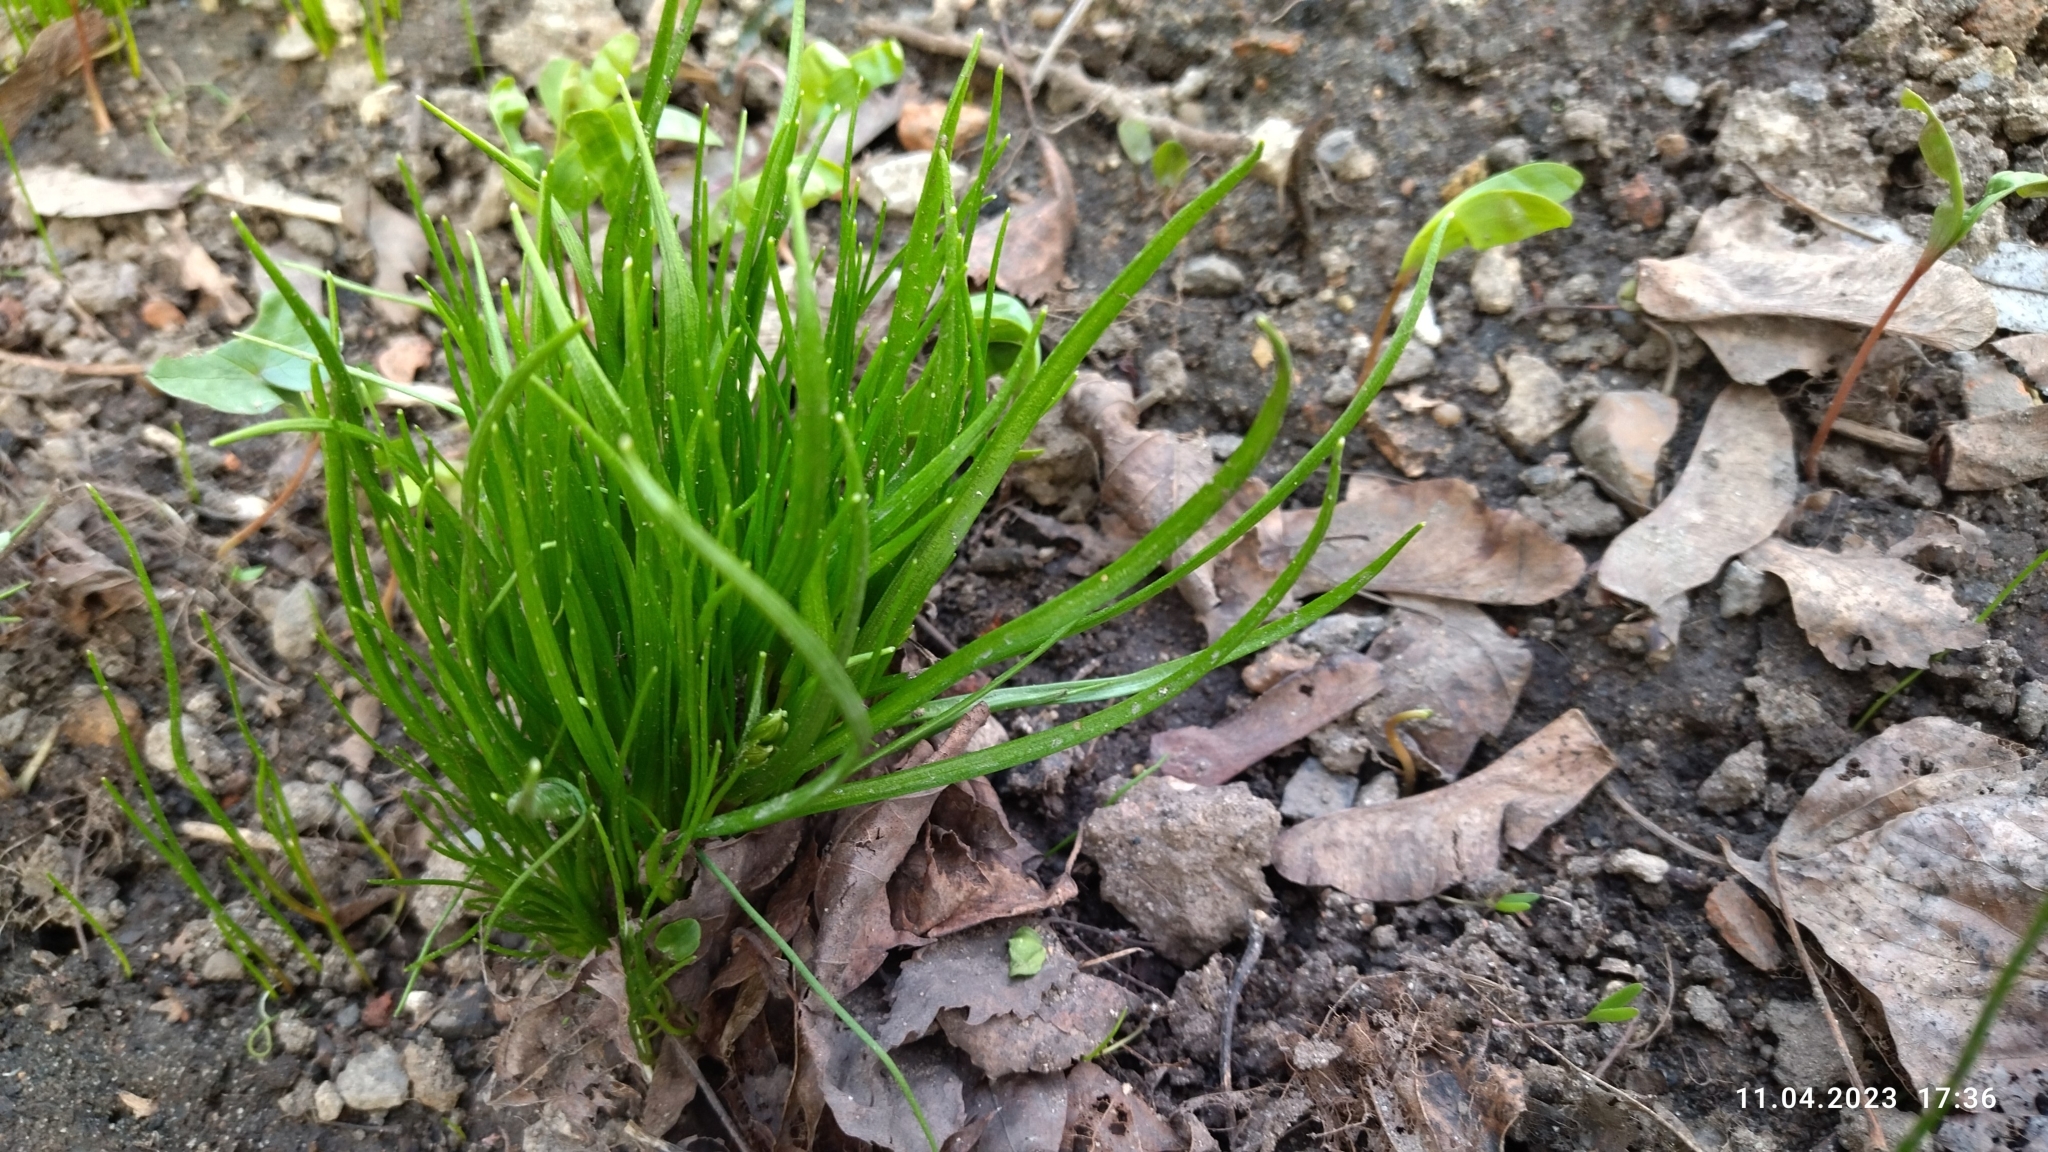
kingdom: Plantae
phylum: Tracheophyta
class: Liliopsida
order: Liliales
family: Liliaceae
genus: Gagea
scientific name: Gagea minima
